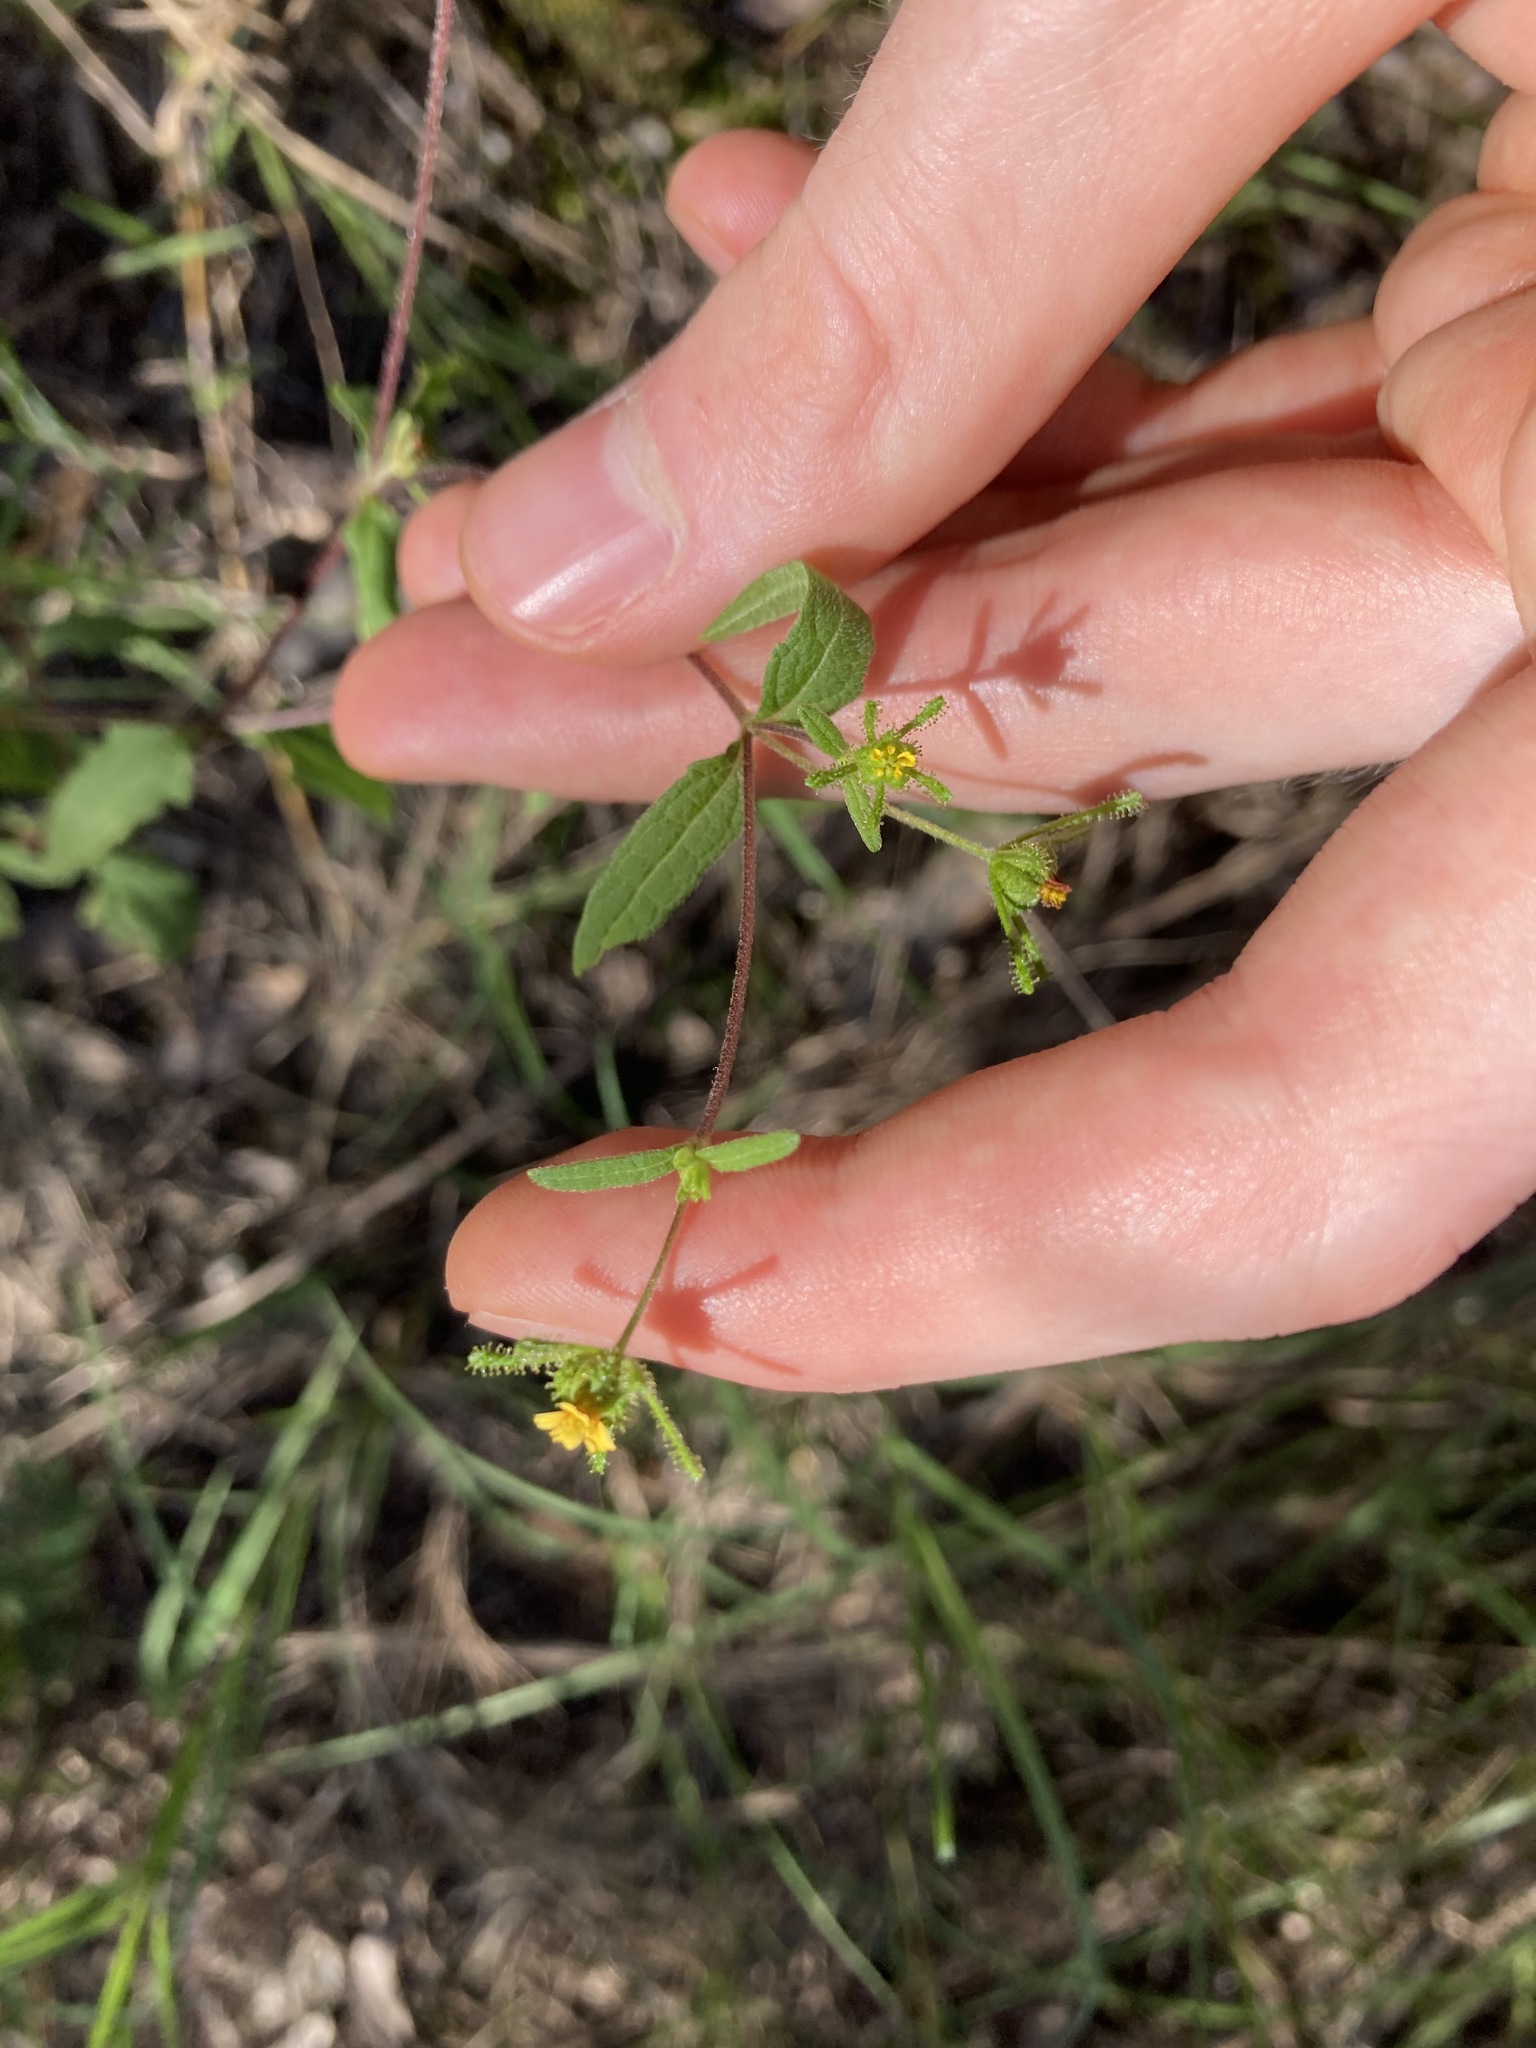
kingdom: Plantae
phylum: Tracheophyta
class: Magnoliopsida
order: Asterales
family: Asteraceae
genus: Sigesbeckia
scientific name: Sigesbeckia orientalis
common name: Eastern st paul's-wort
